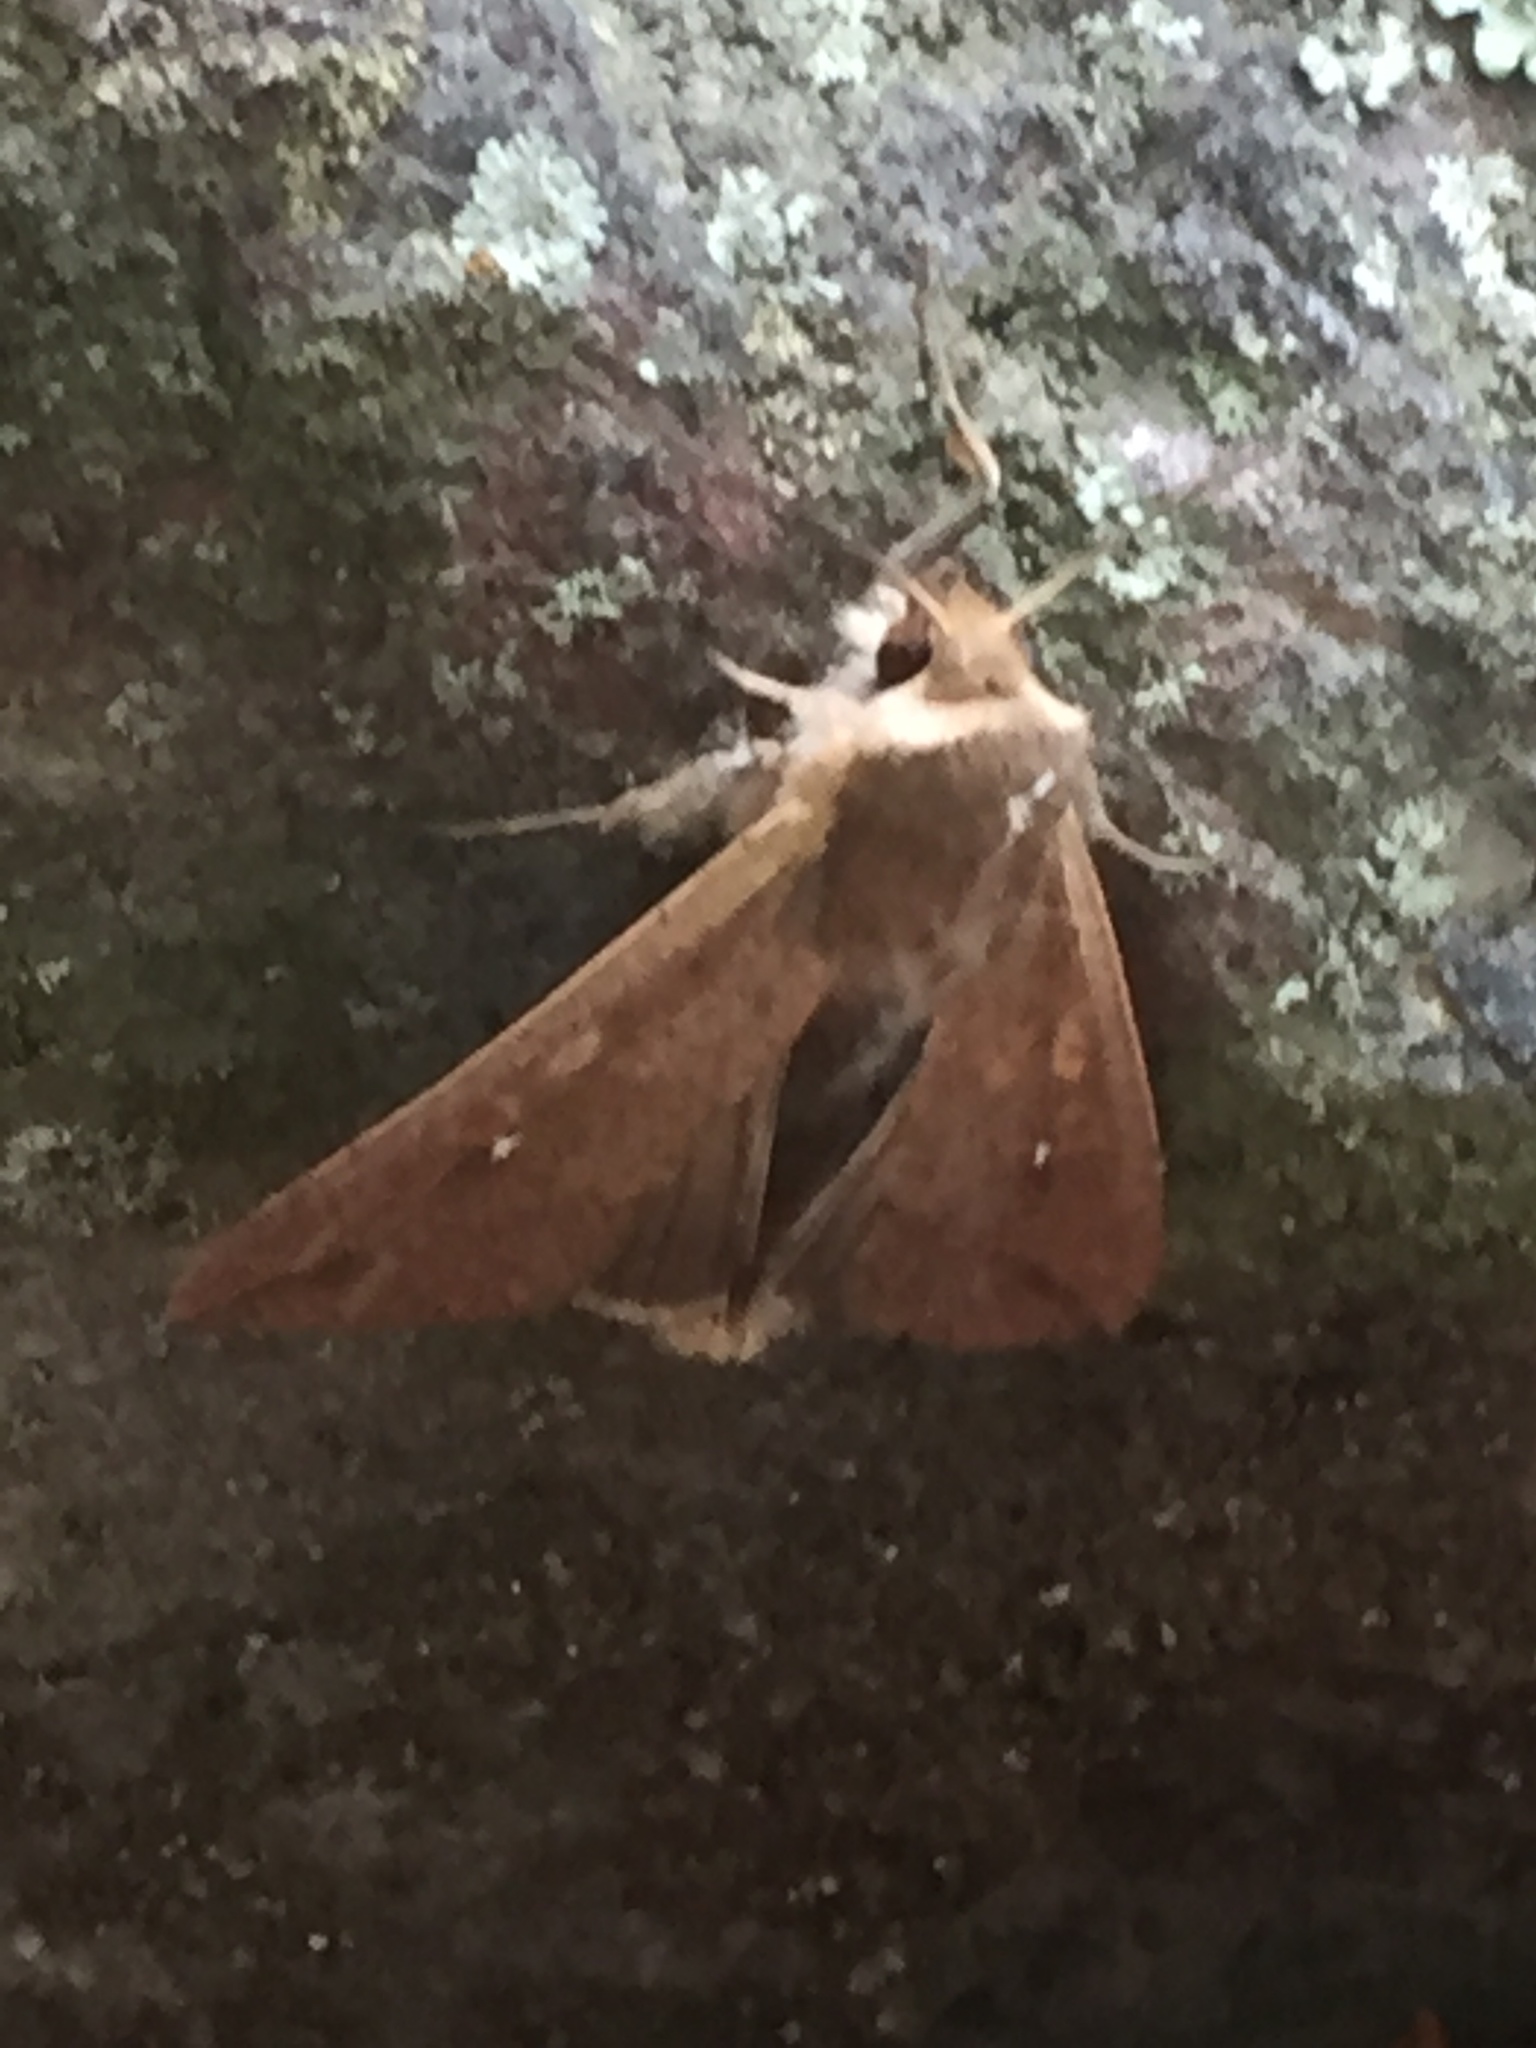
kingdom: Animalia
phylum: Arthropoda
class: Insecta
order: Lepidoptera
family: Noctuidae
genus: Mythimna
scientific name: Mythimna unipuncta
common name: White-speck
